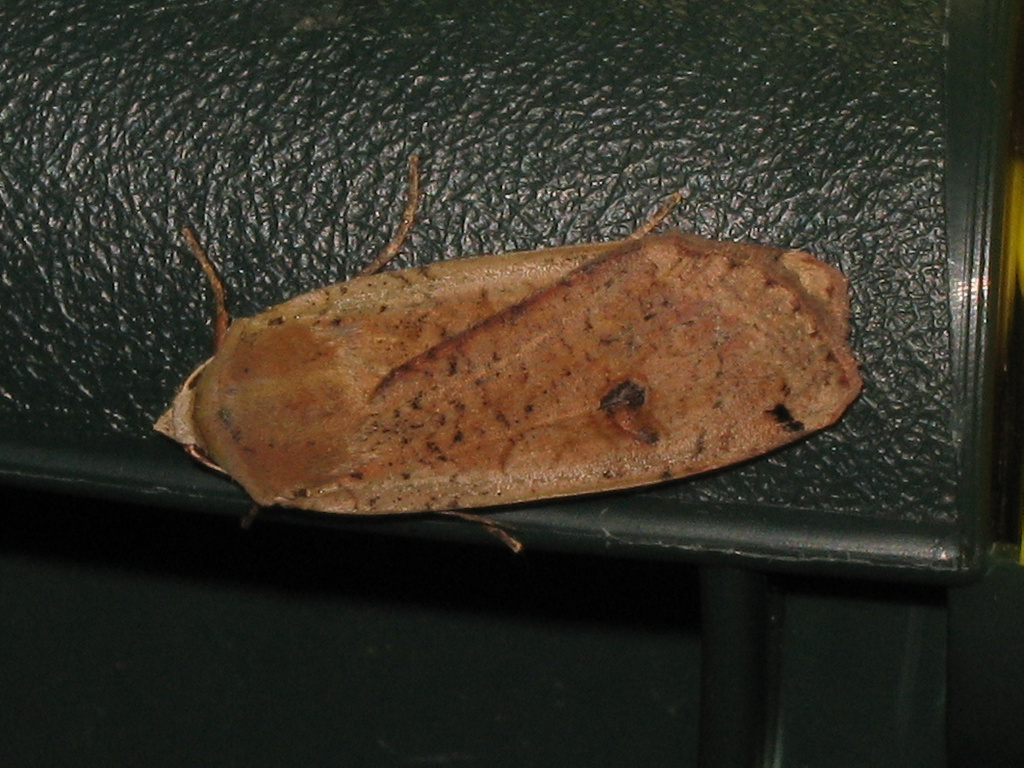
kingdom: Animalia
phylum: Arthropoda
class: Insecta
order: Lepidoptera
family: Noctuidae
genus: Noctua
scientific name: Noctua pronuba
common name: Large yellow underwing
